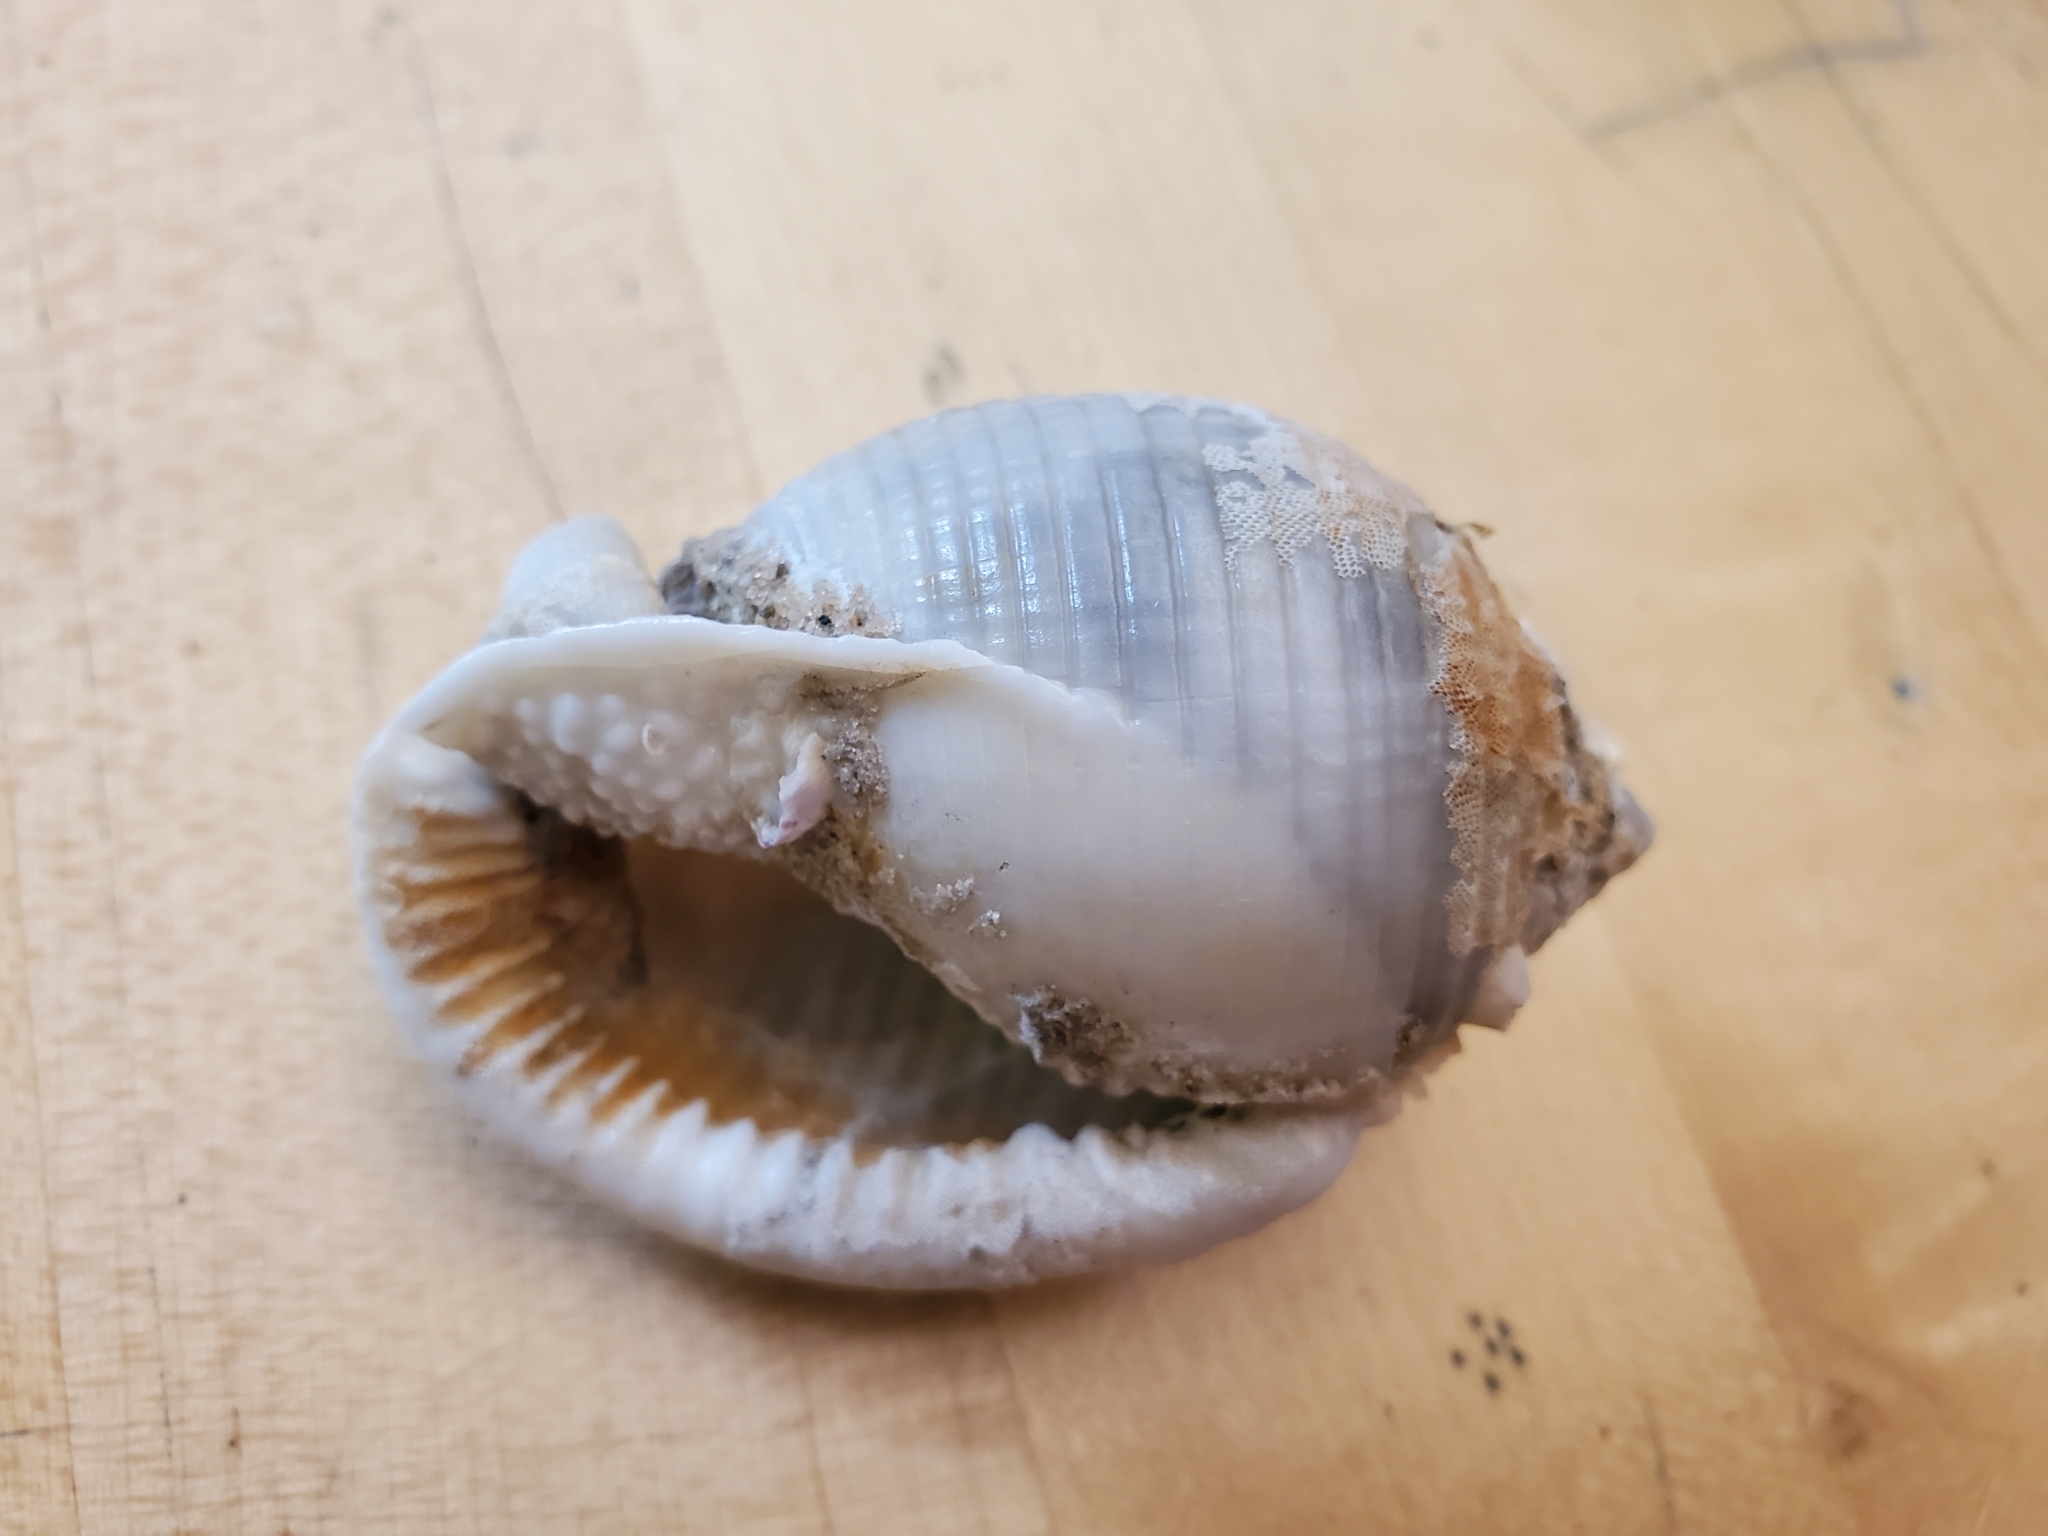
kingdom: Animalia
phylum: Mollusca
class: Gastropoda
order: Littorinimorpha
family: Cassidae
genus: Semicassis
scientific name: Semicassis granulata
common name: Scotch bonnet
